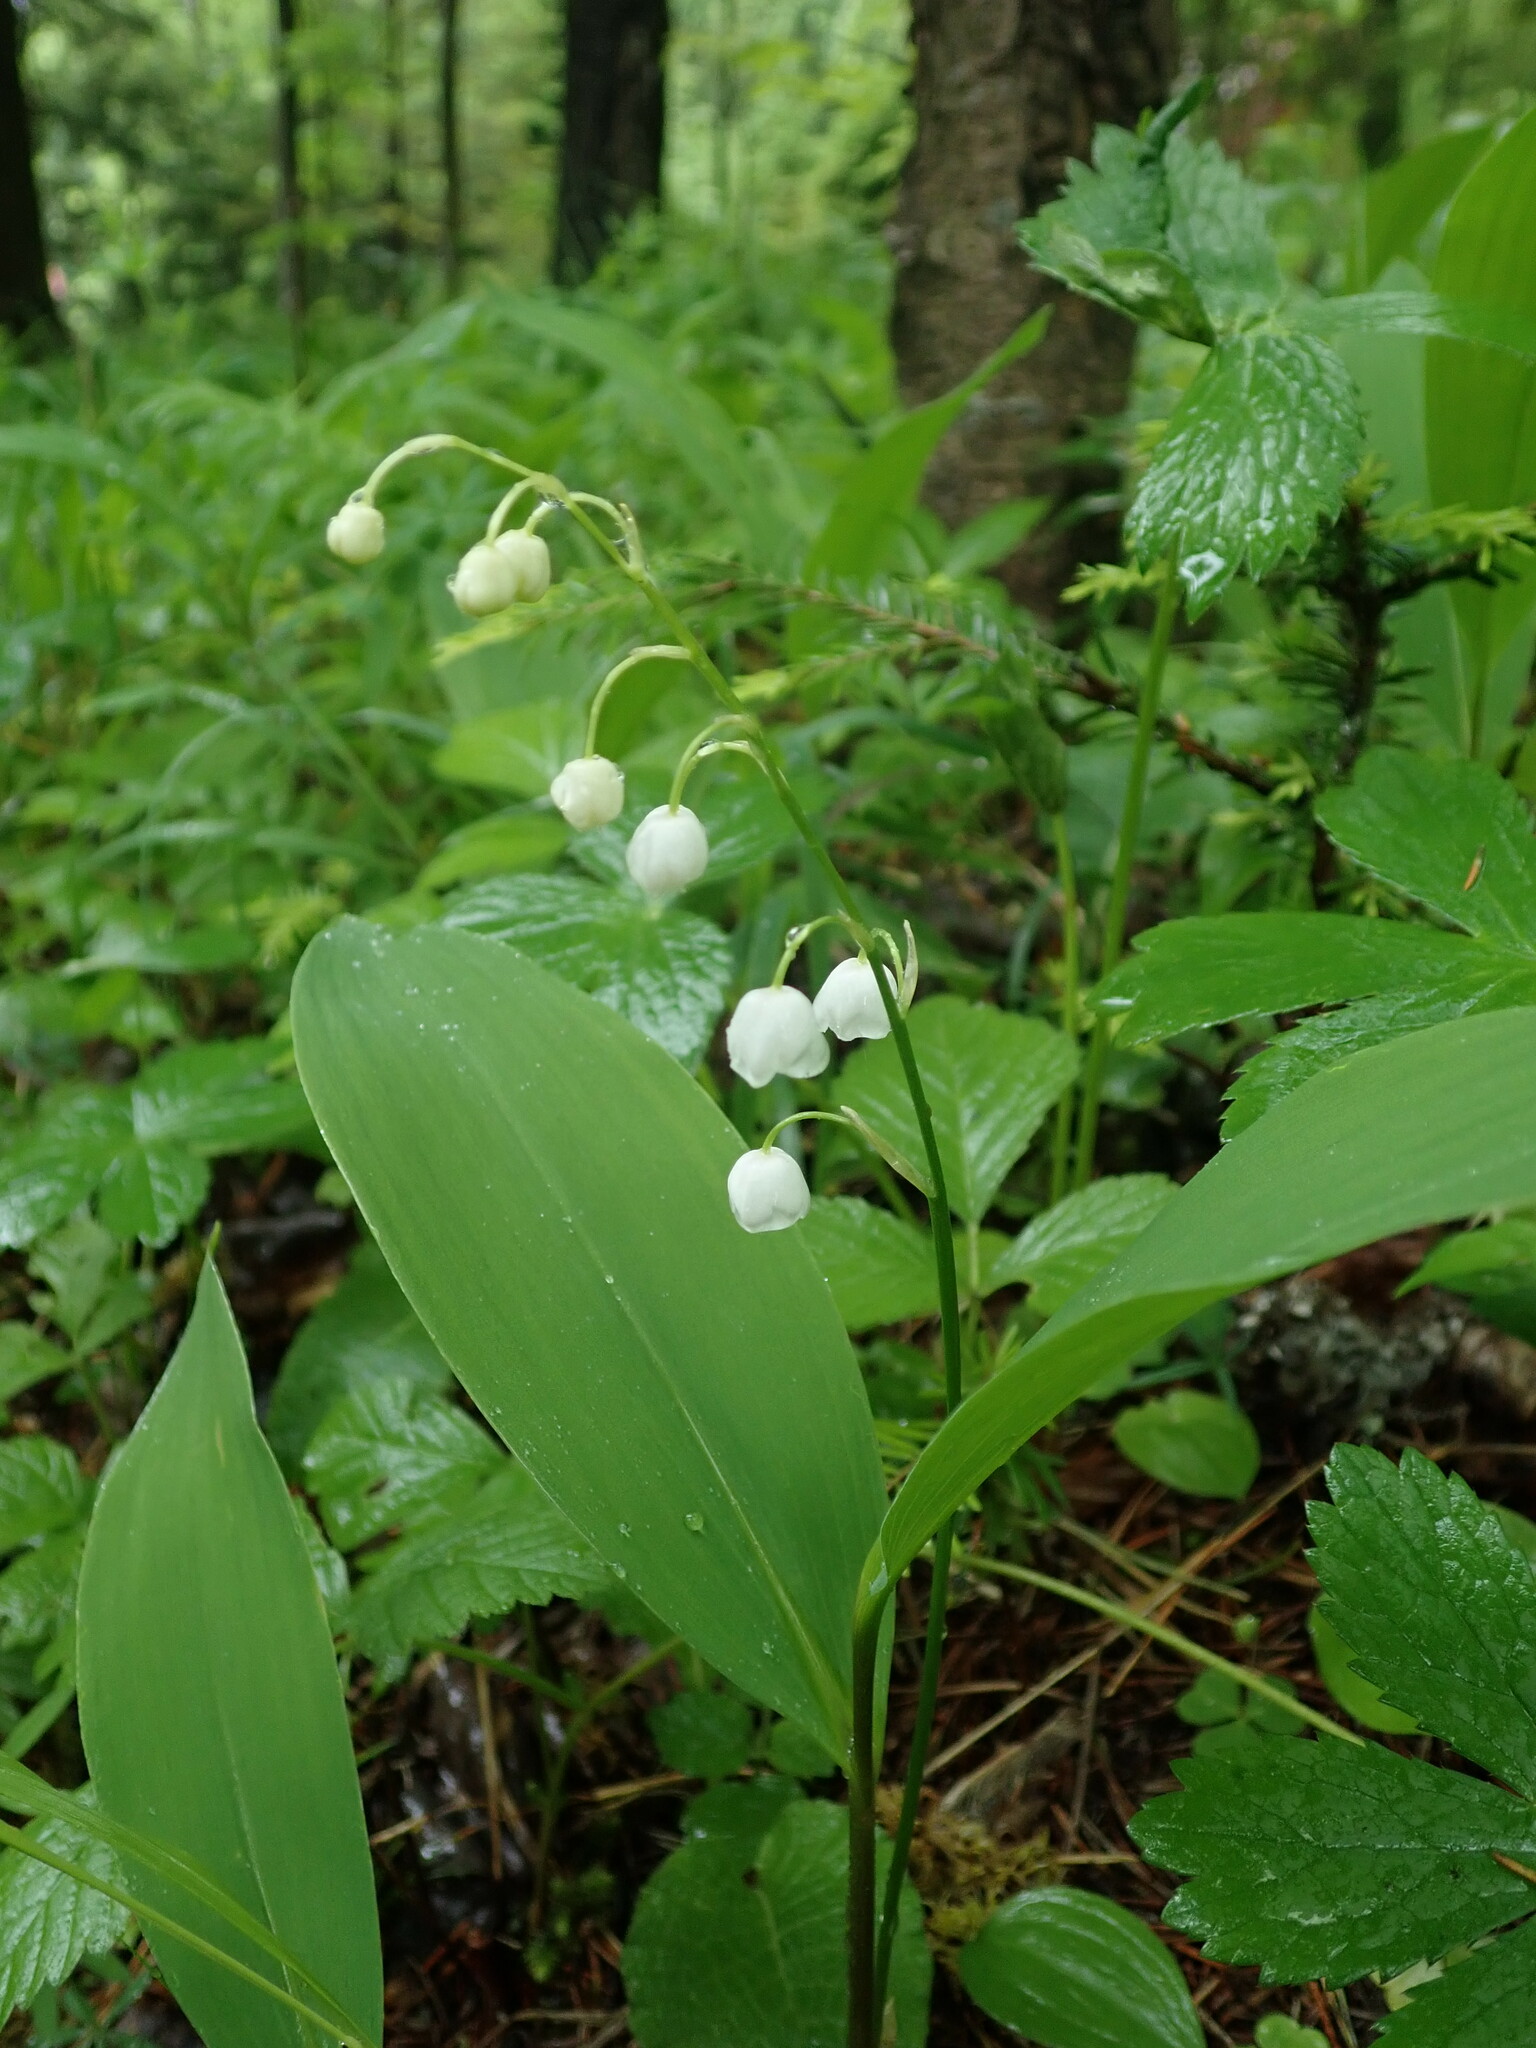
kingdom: Plantae
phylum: Tracheophyta
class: Liliopsida
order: Asparagales
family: Asparagaceae
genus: Convallaria
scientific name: Convallaria majalis
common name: Lily-of-the-valley
